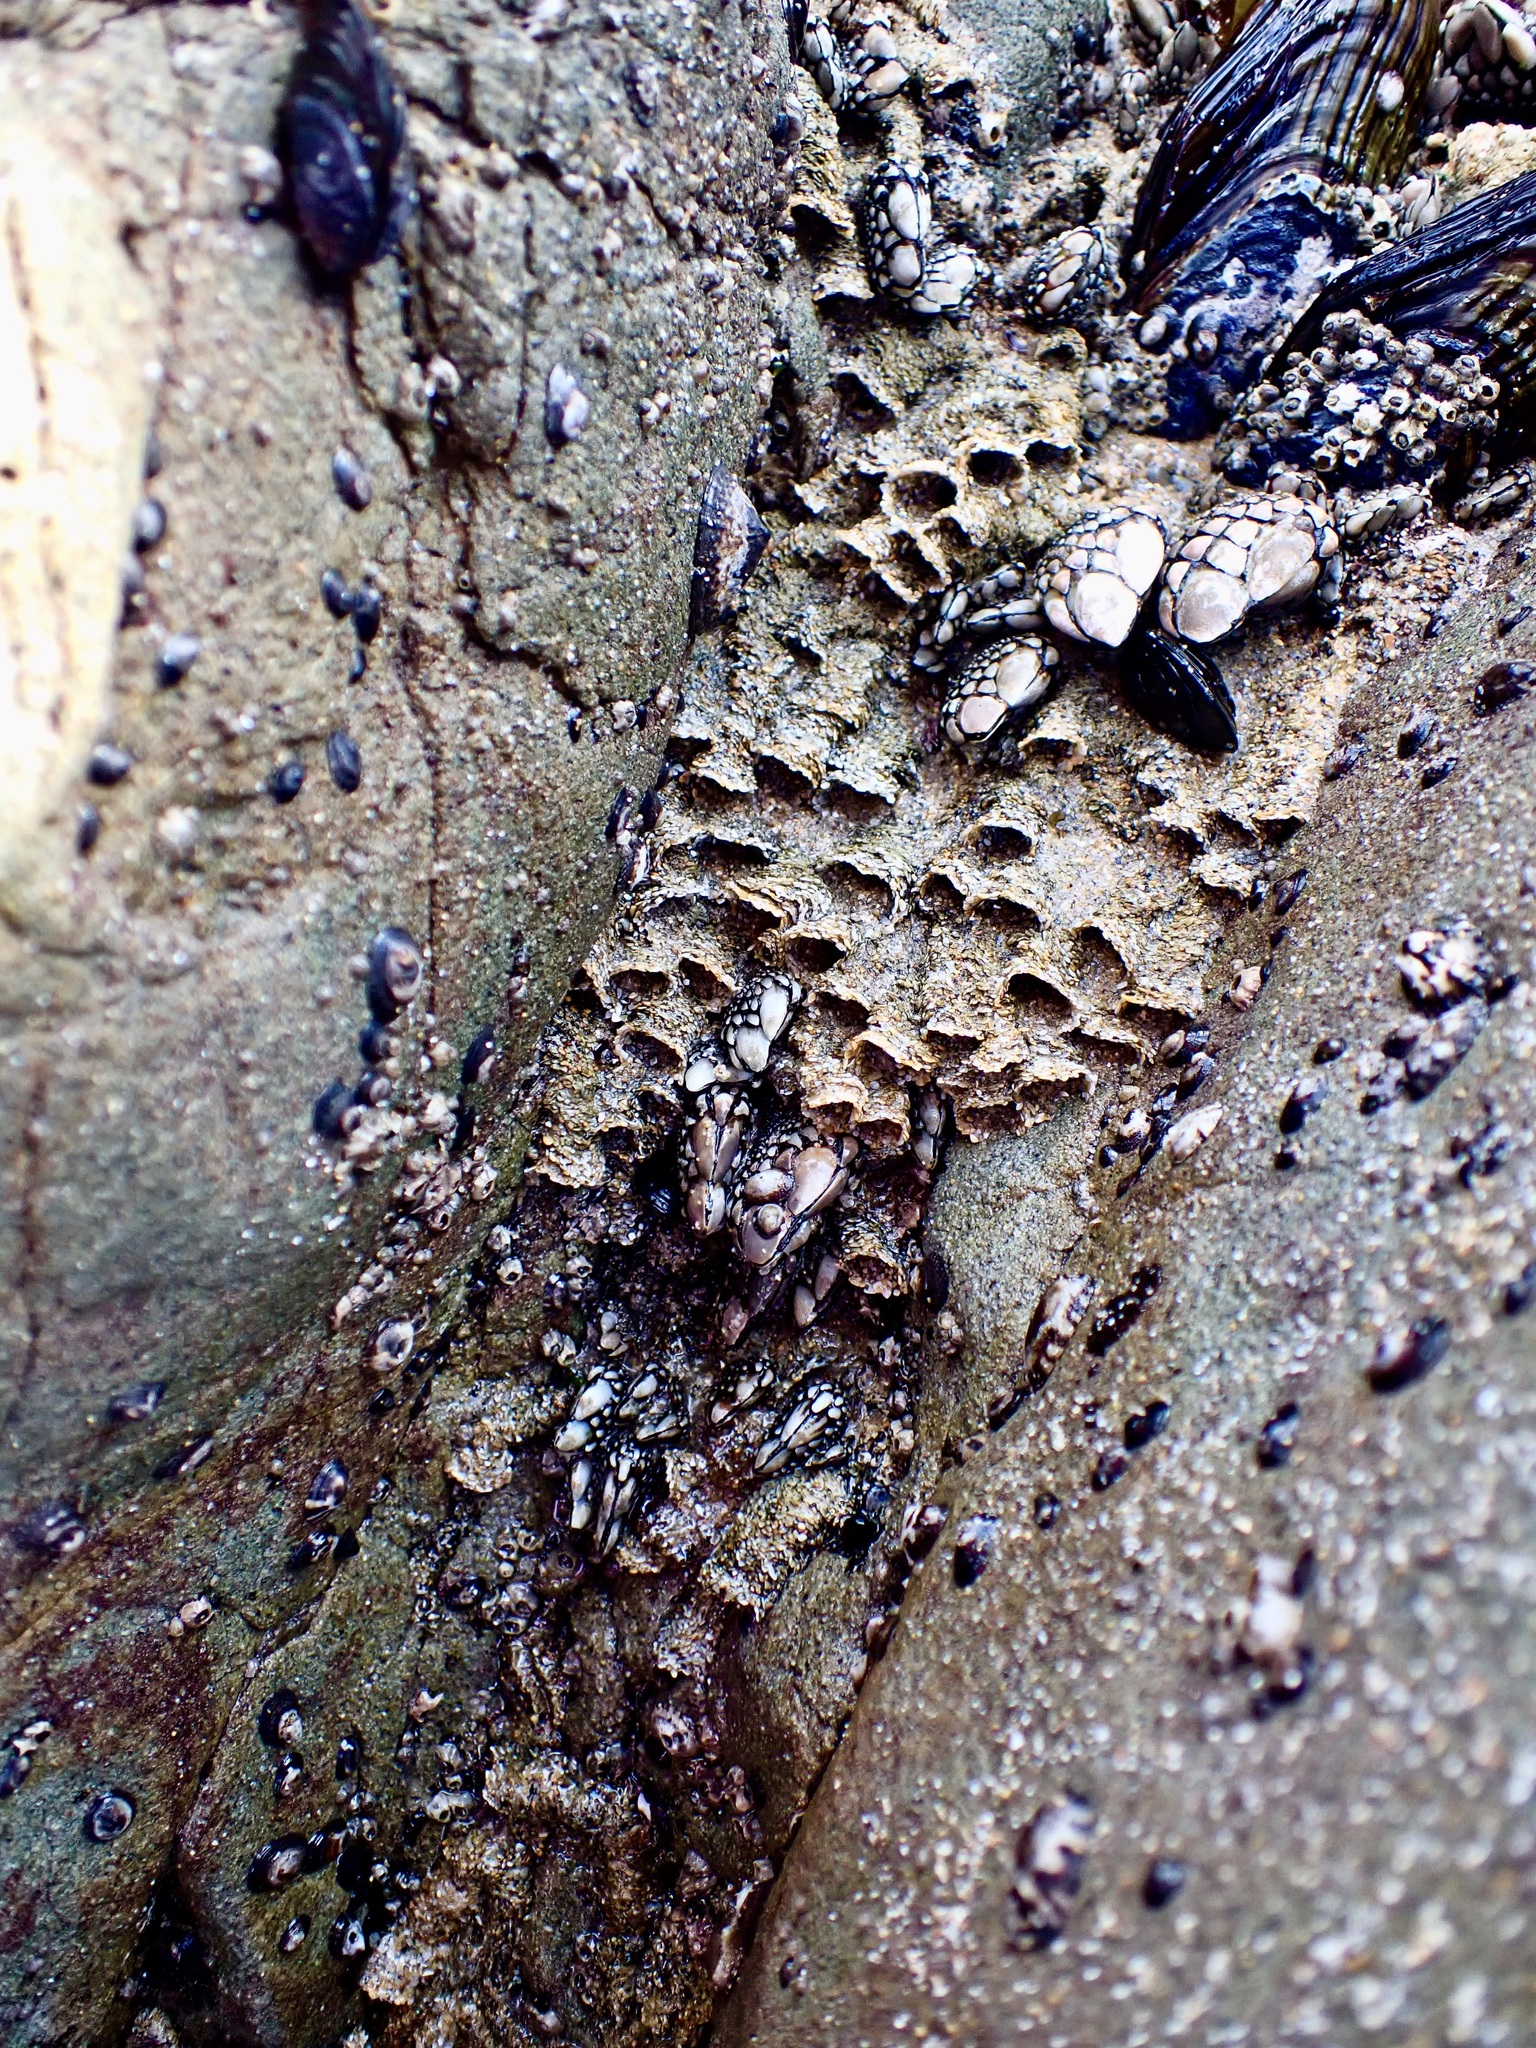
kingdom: Animalia
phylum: Annelida
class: Polychaeta
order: Sabellida
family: Sabellariidae
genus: Phragmatopoma
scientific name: Phragmatopoma californica
